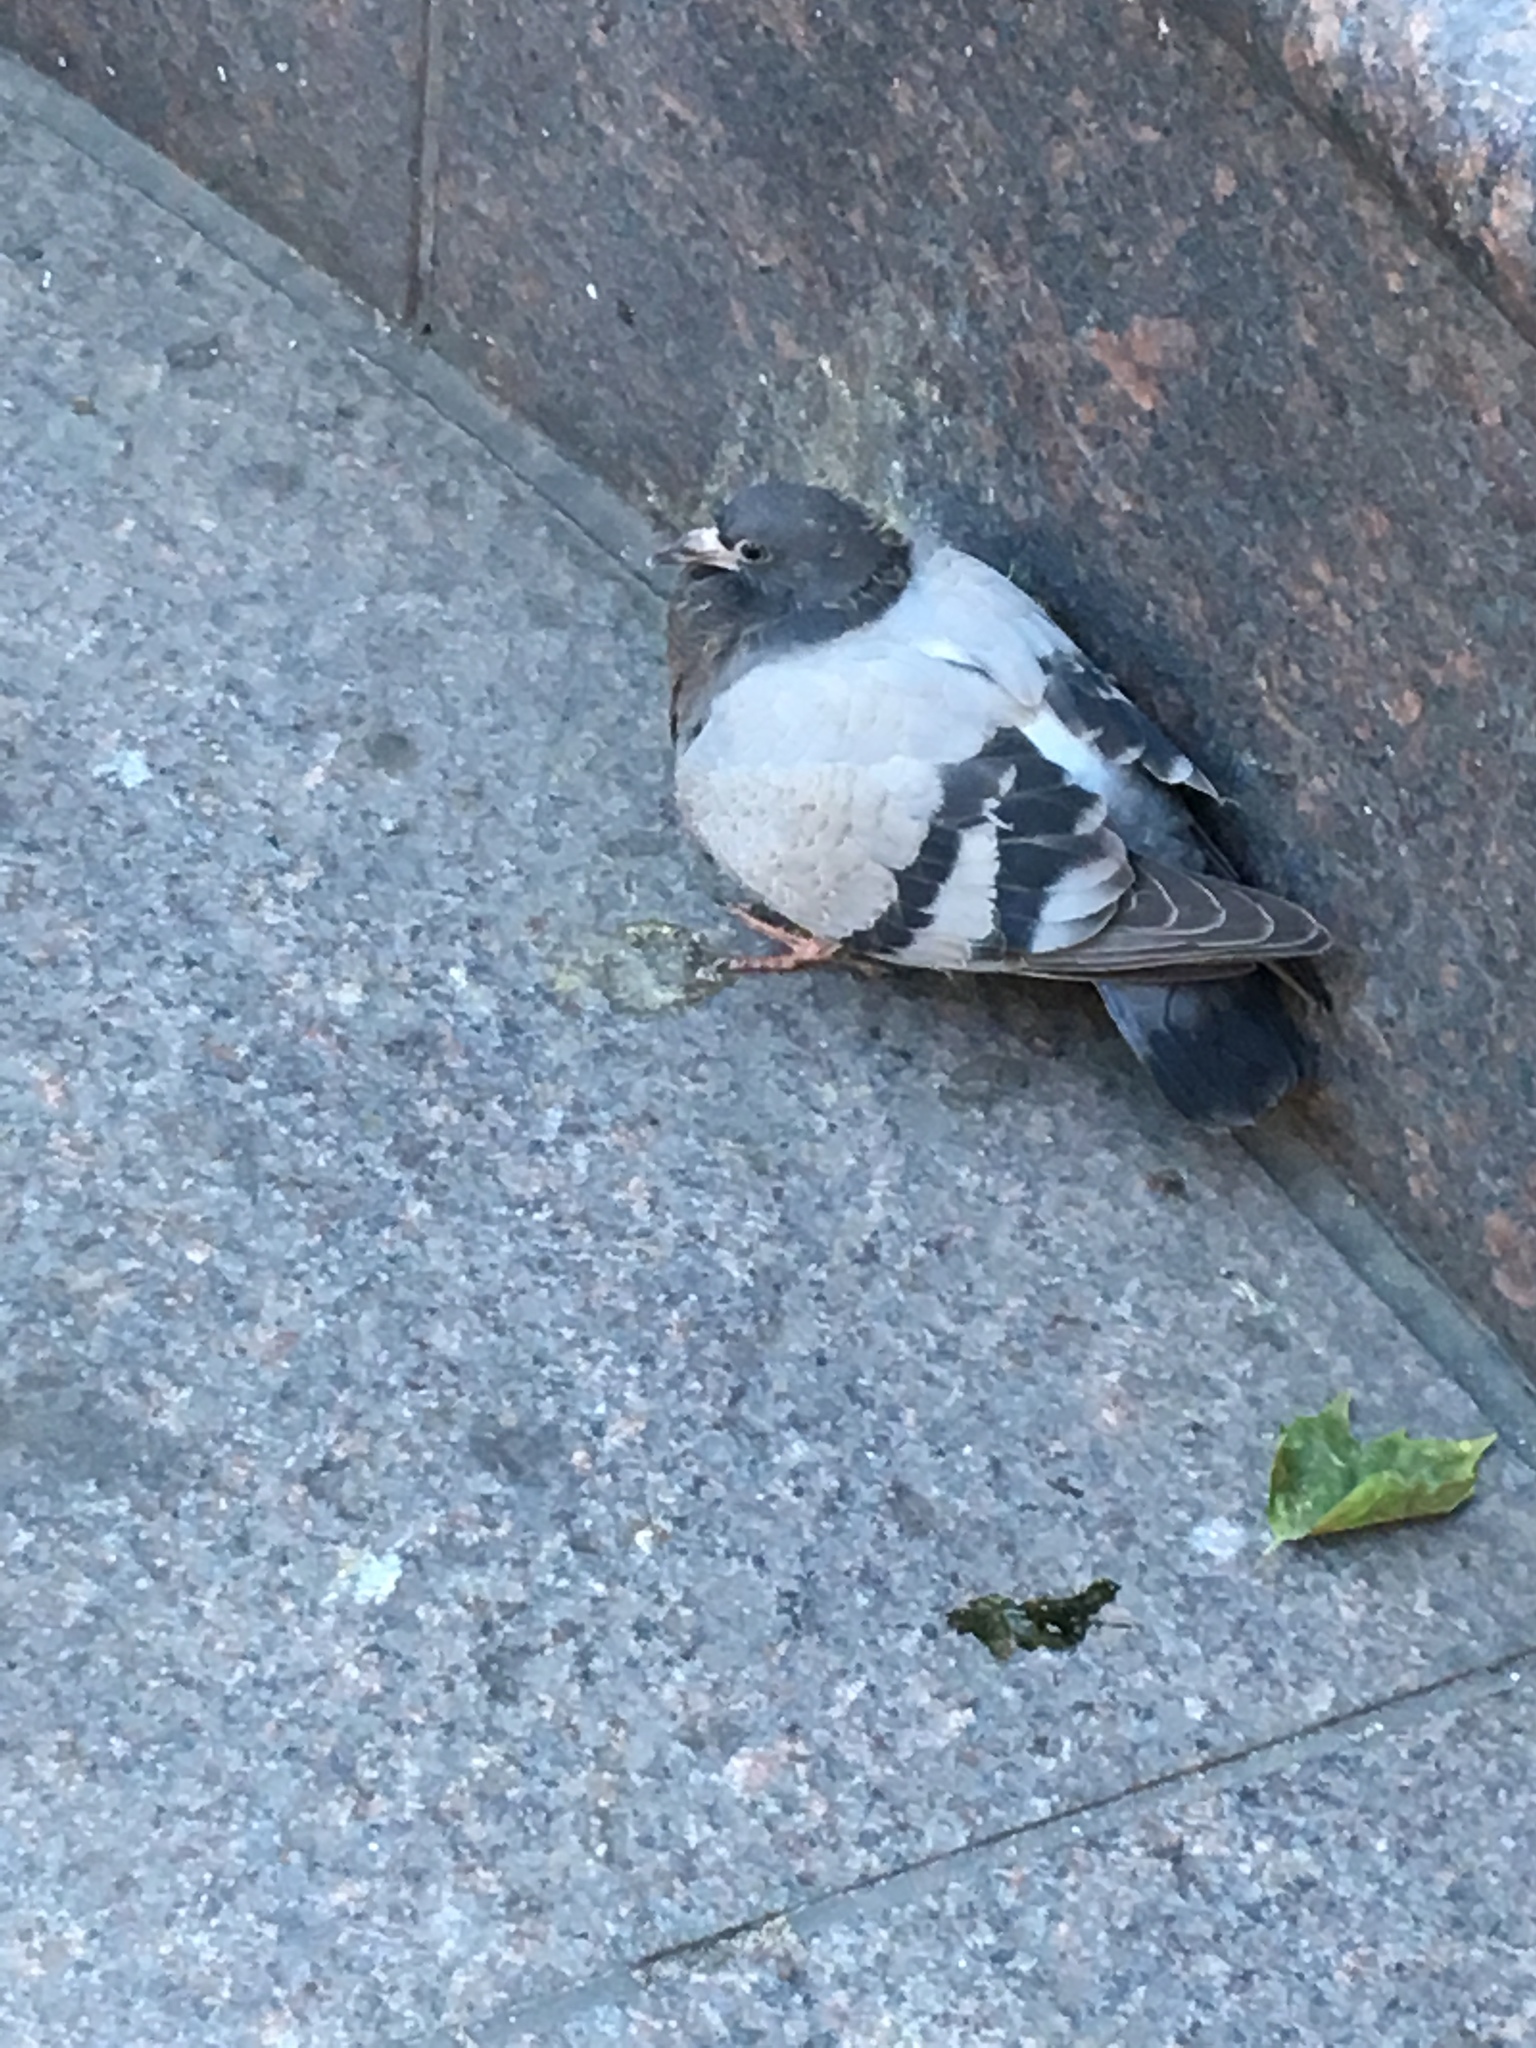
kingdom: Animalia
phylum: Chordata
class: Aves
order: Columbiformes
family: Columbidae
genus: Columba
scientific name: Columba livia
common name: Rock pigeon
